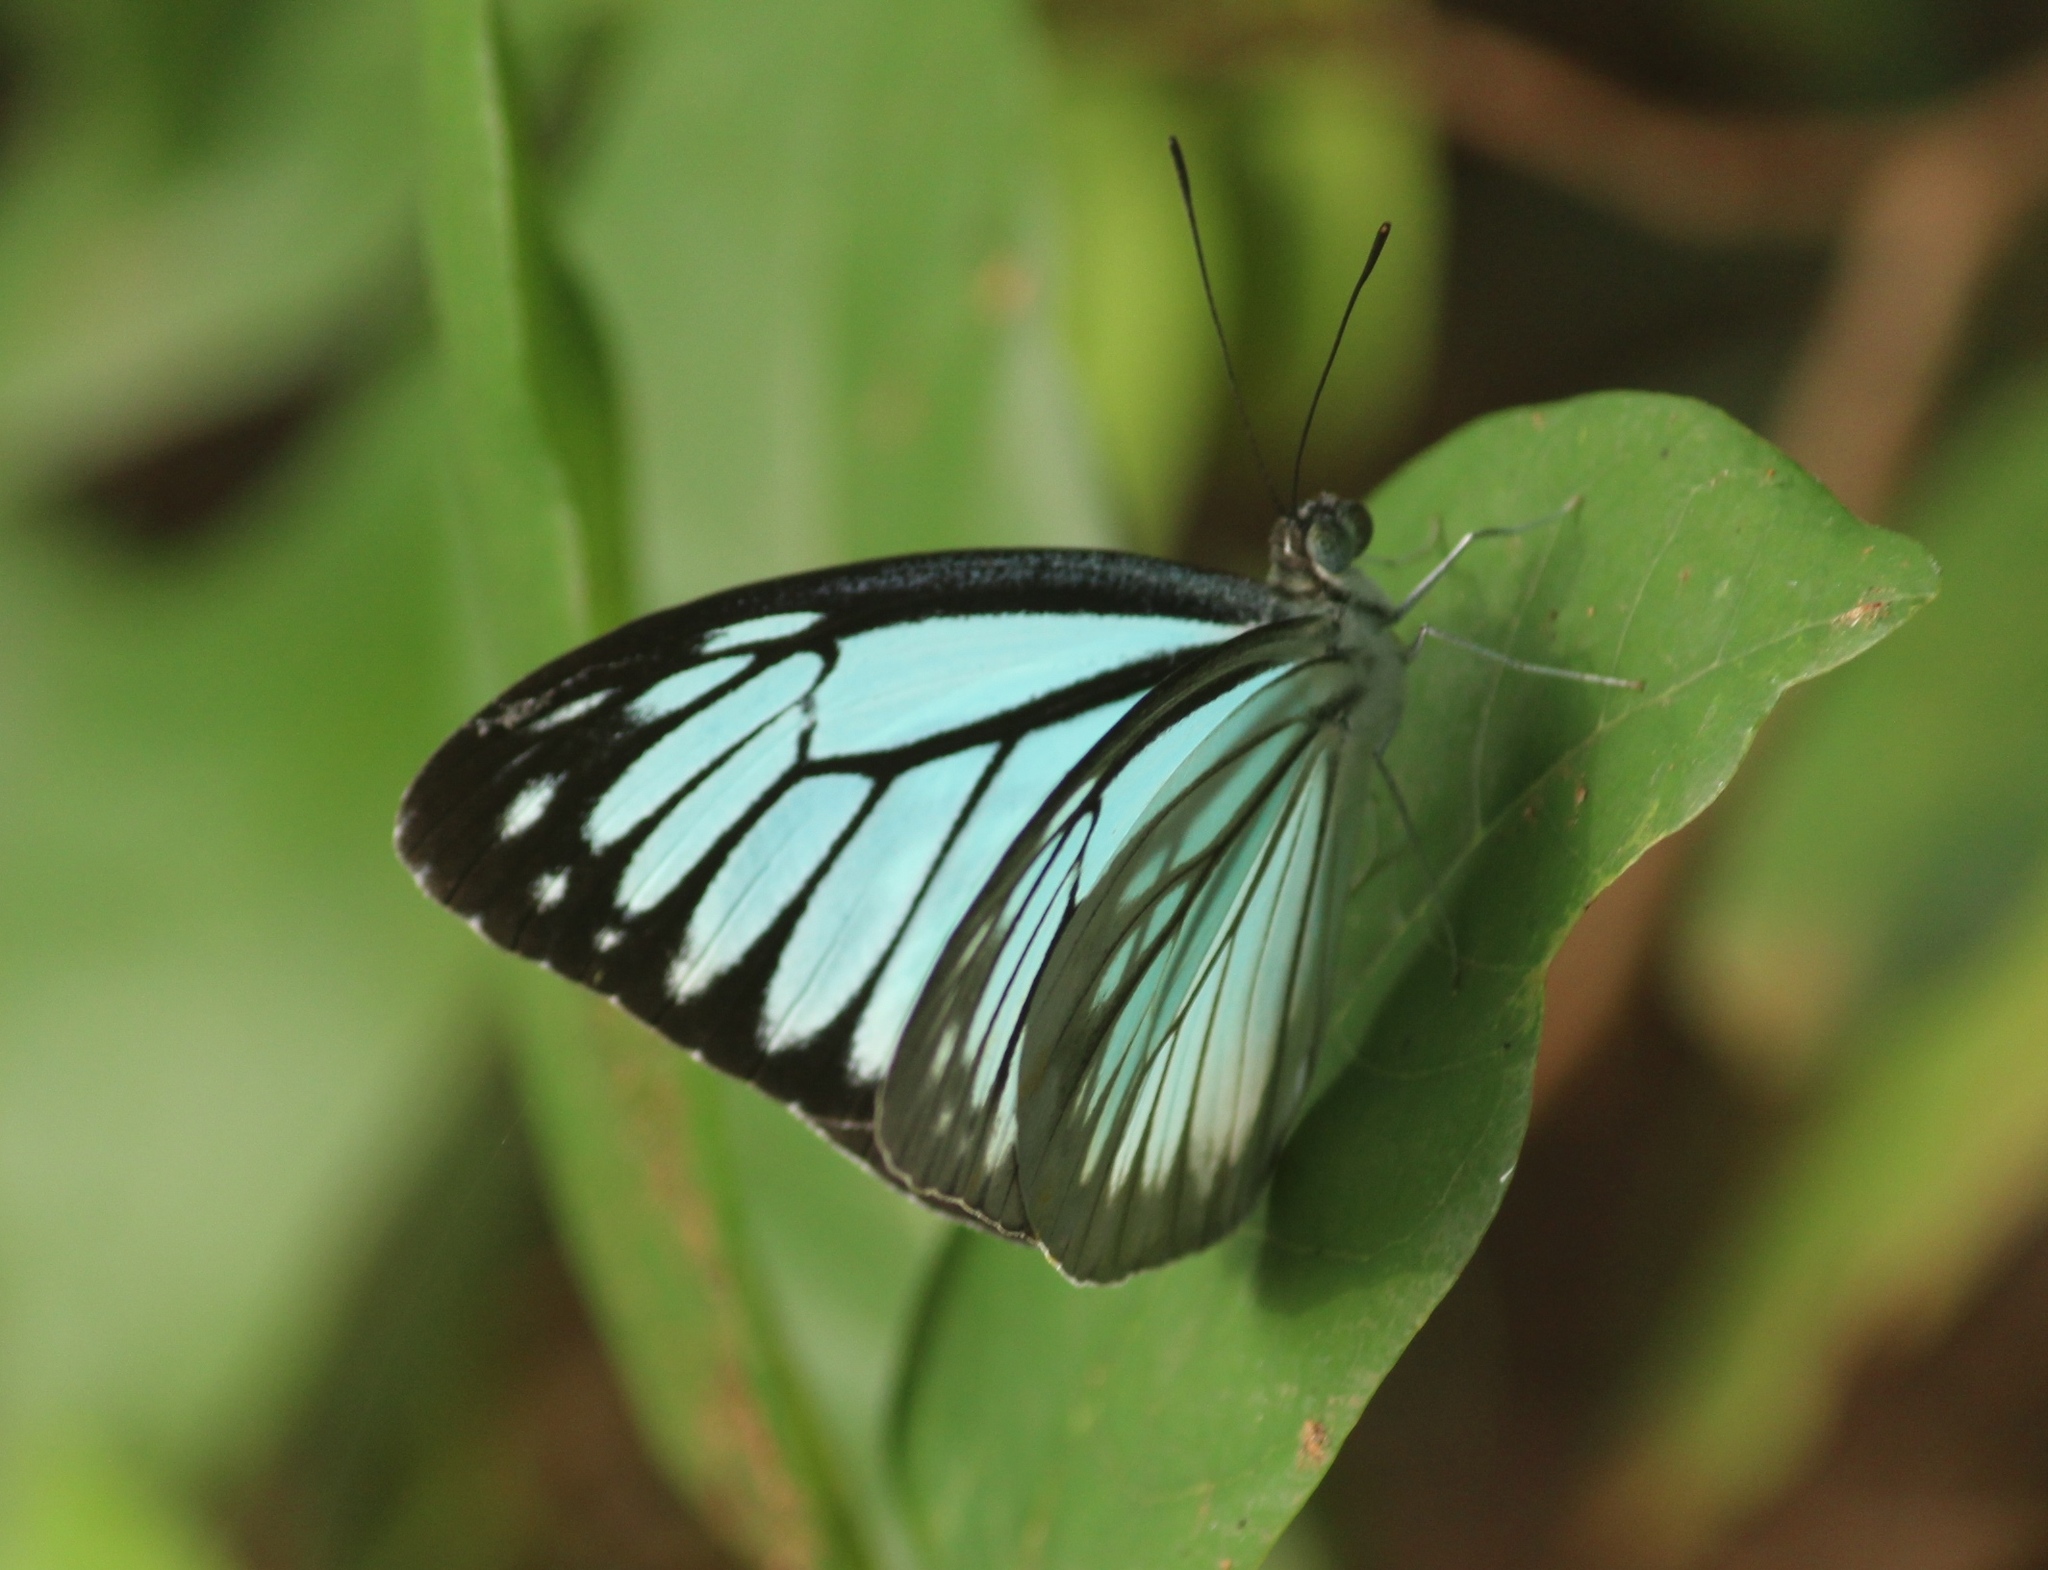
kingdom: Animalia
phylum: Arthropoda
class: Insecta
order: Lepidoptera
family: Pieridae
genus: Pareronia
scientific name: Pareronia hippia
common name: Indian wanderer
